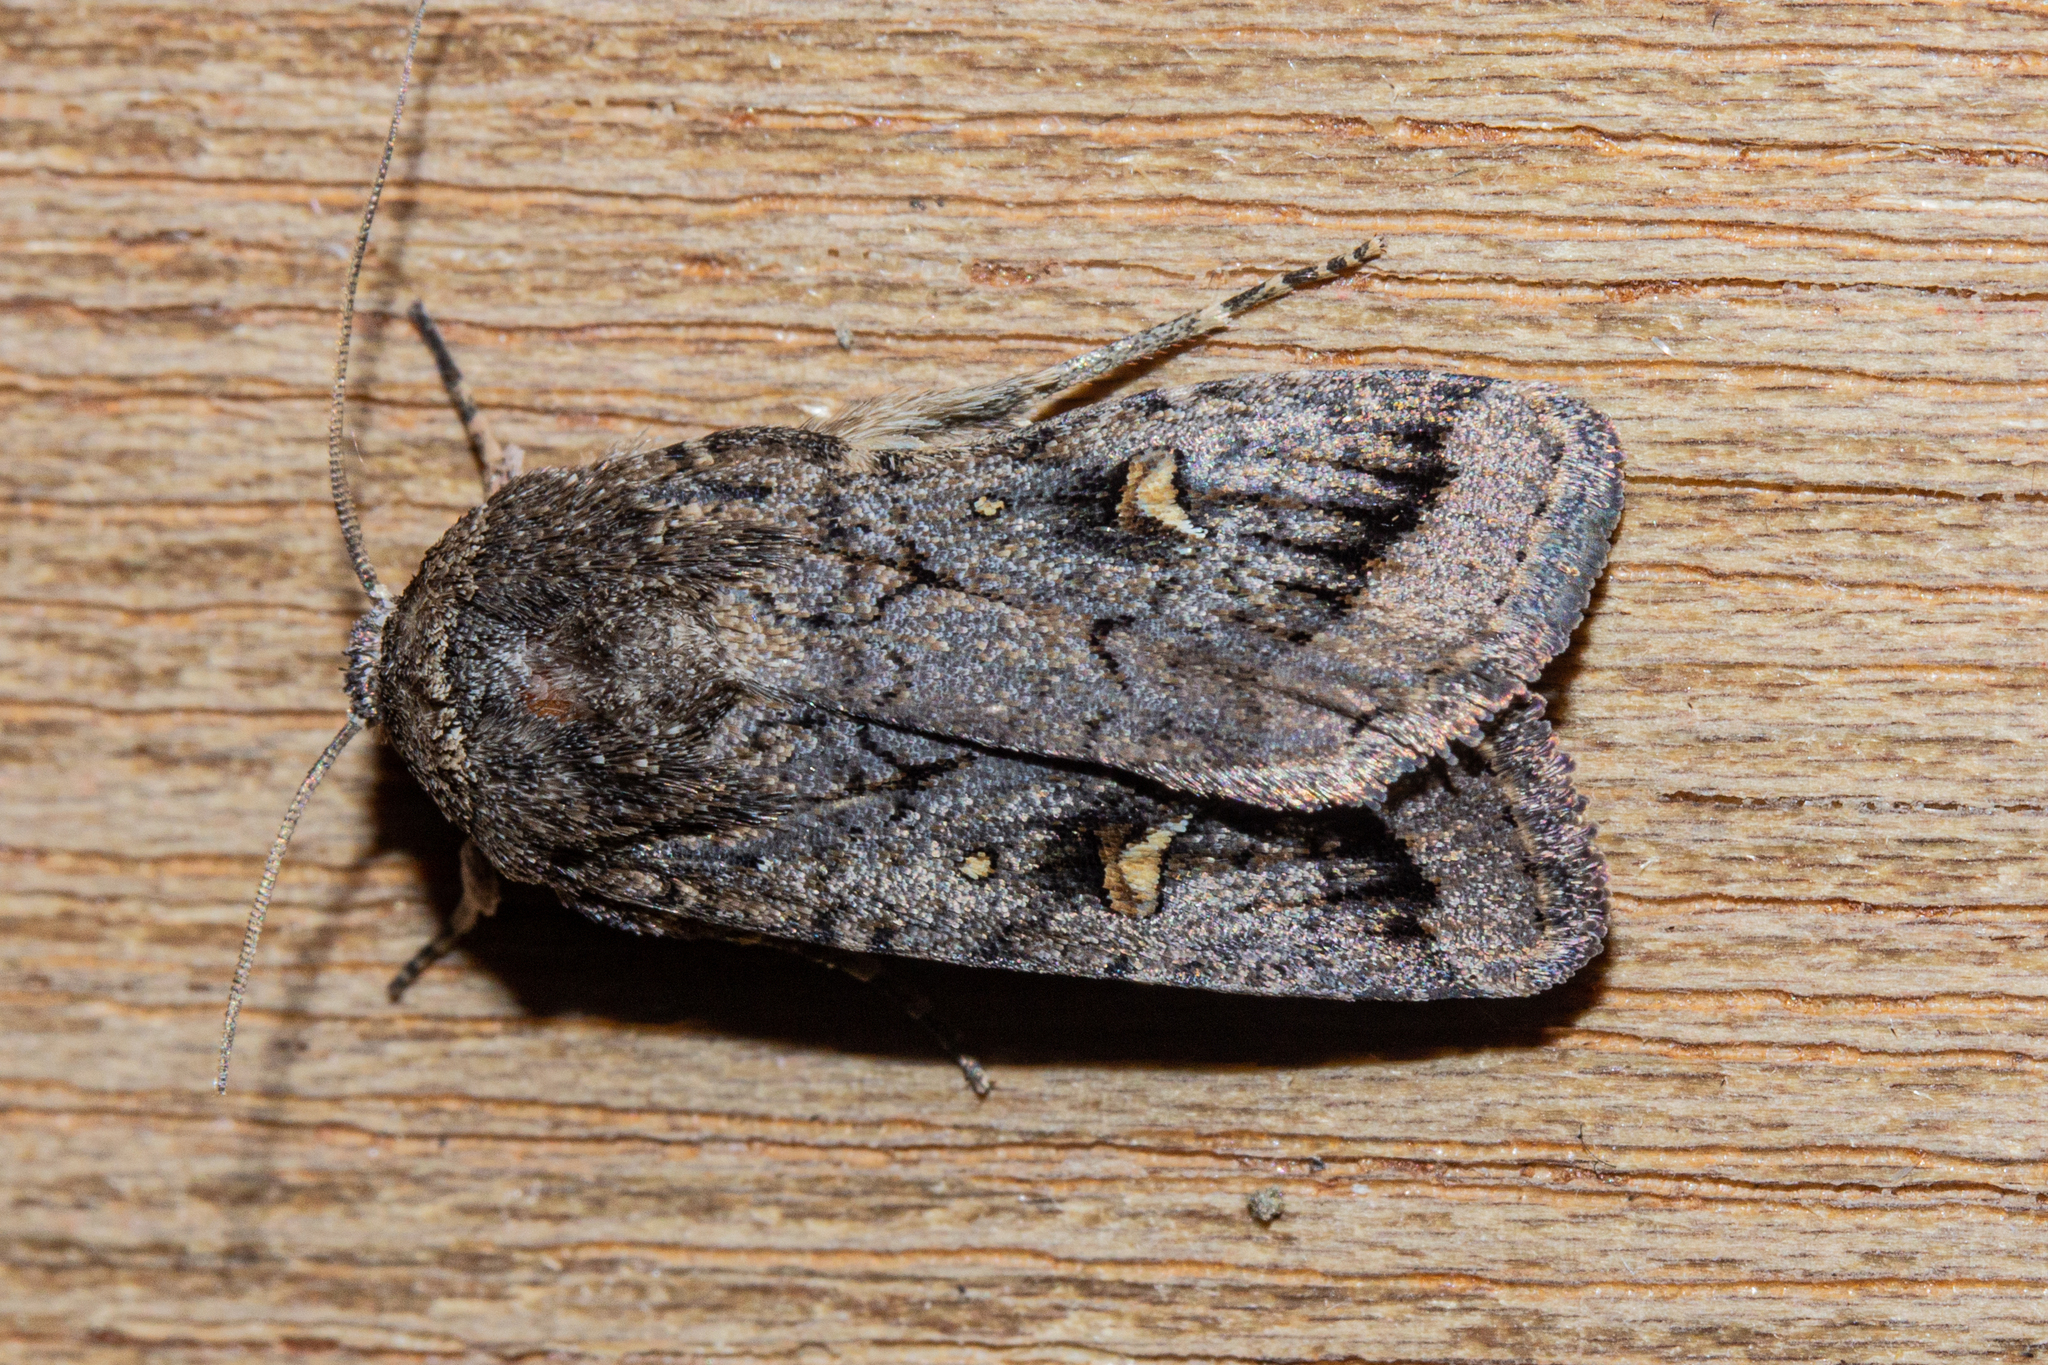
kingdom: Animalia
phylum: Arthropoda
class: Insecta
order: Lepidoptera
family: Noctuidae
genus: Proteuxoa
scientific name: Proteuxoa comma
